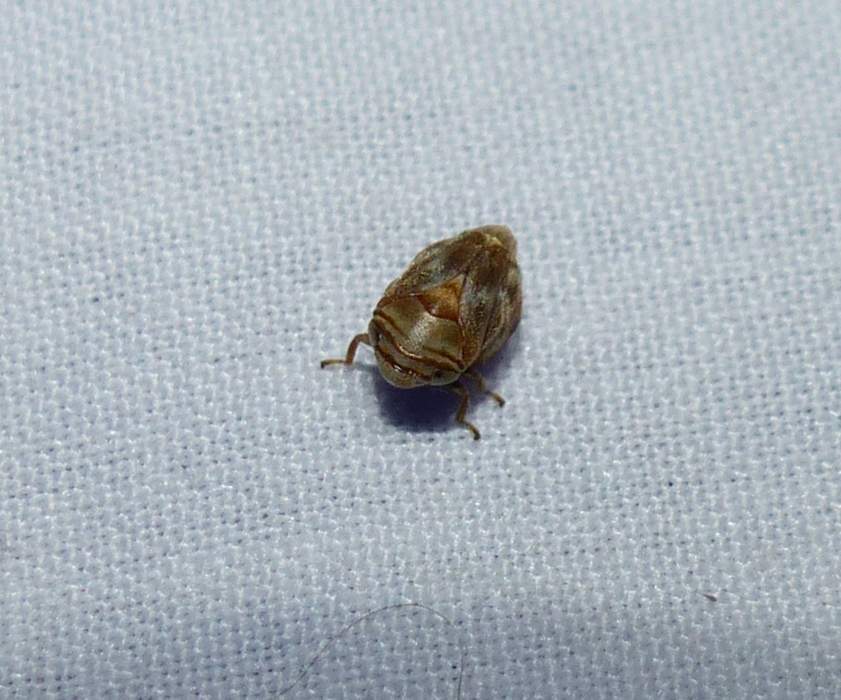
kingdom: Animalia
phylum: Arthropoda
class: Insecta
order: Hemiptera
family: Clastopteridae
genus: Clastoptera
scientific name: Clastoptera obtusa
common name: Alder spittlebug
